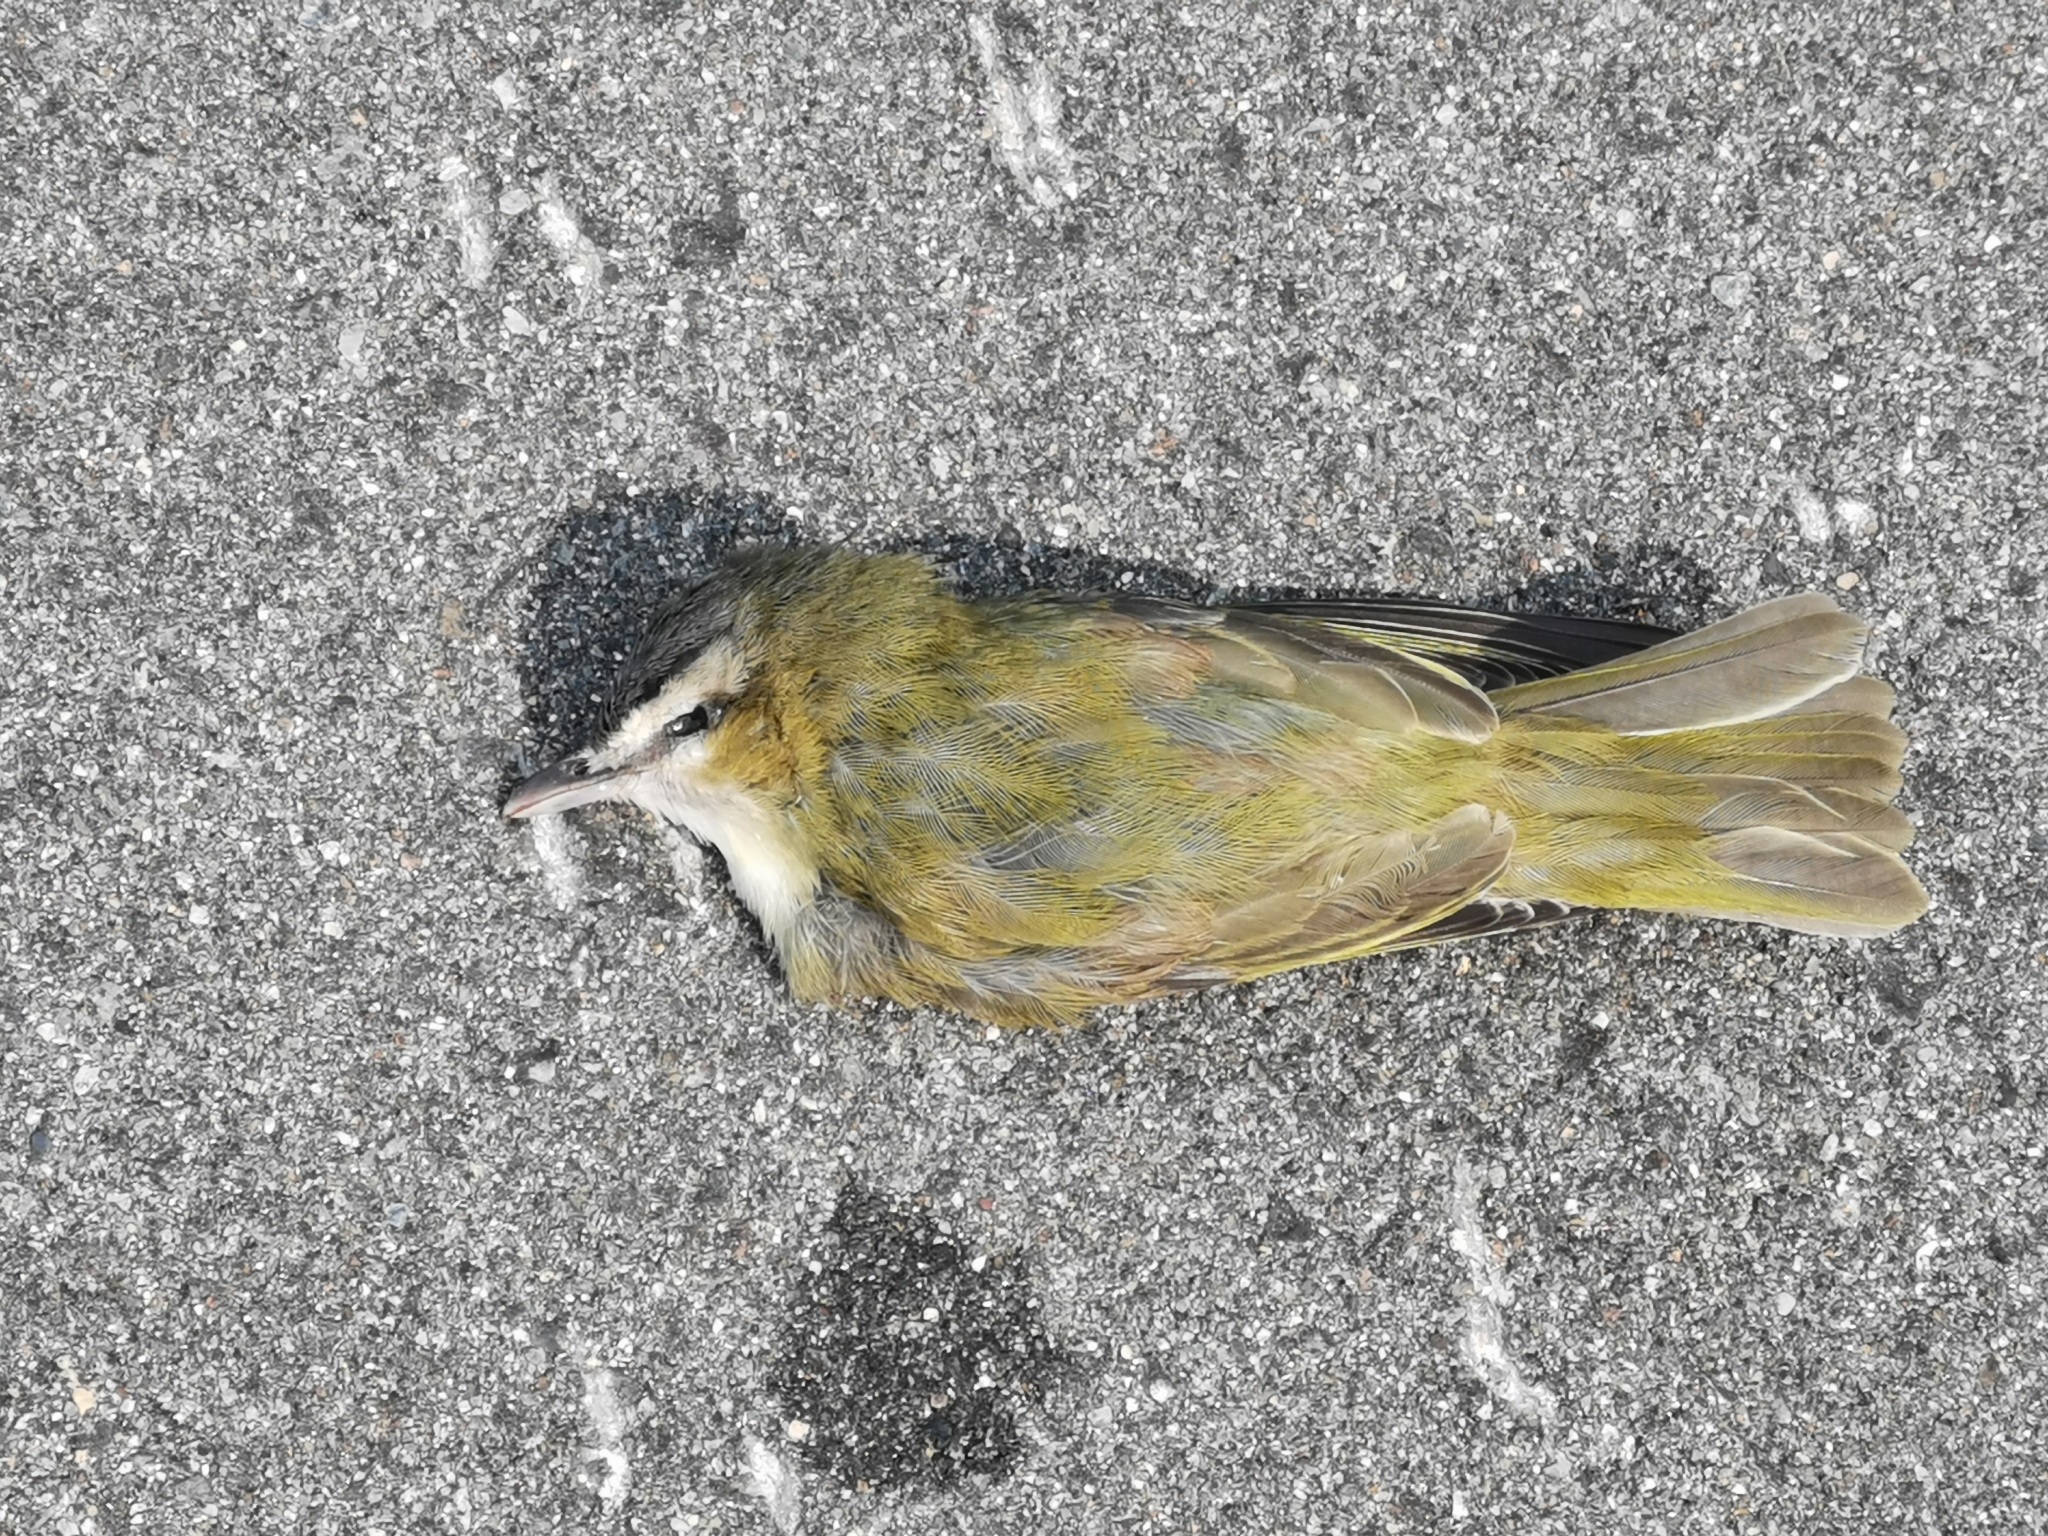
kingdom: Animalia
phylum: Chordata
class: Aves
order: Passeriformes
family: Vireonidae
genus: Vireo
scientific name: Vireo olivaceus
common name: Red-eyed vireo
